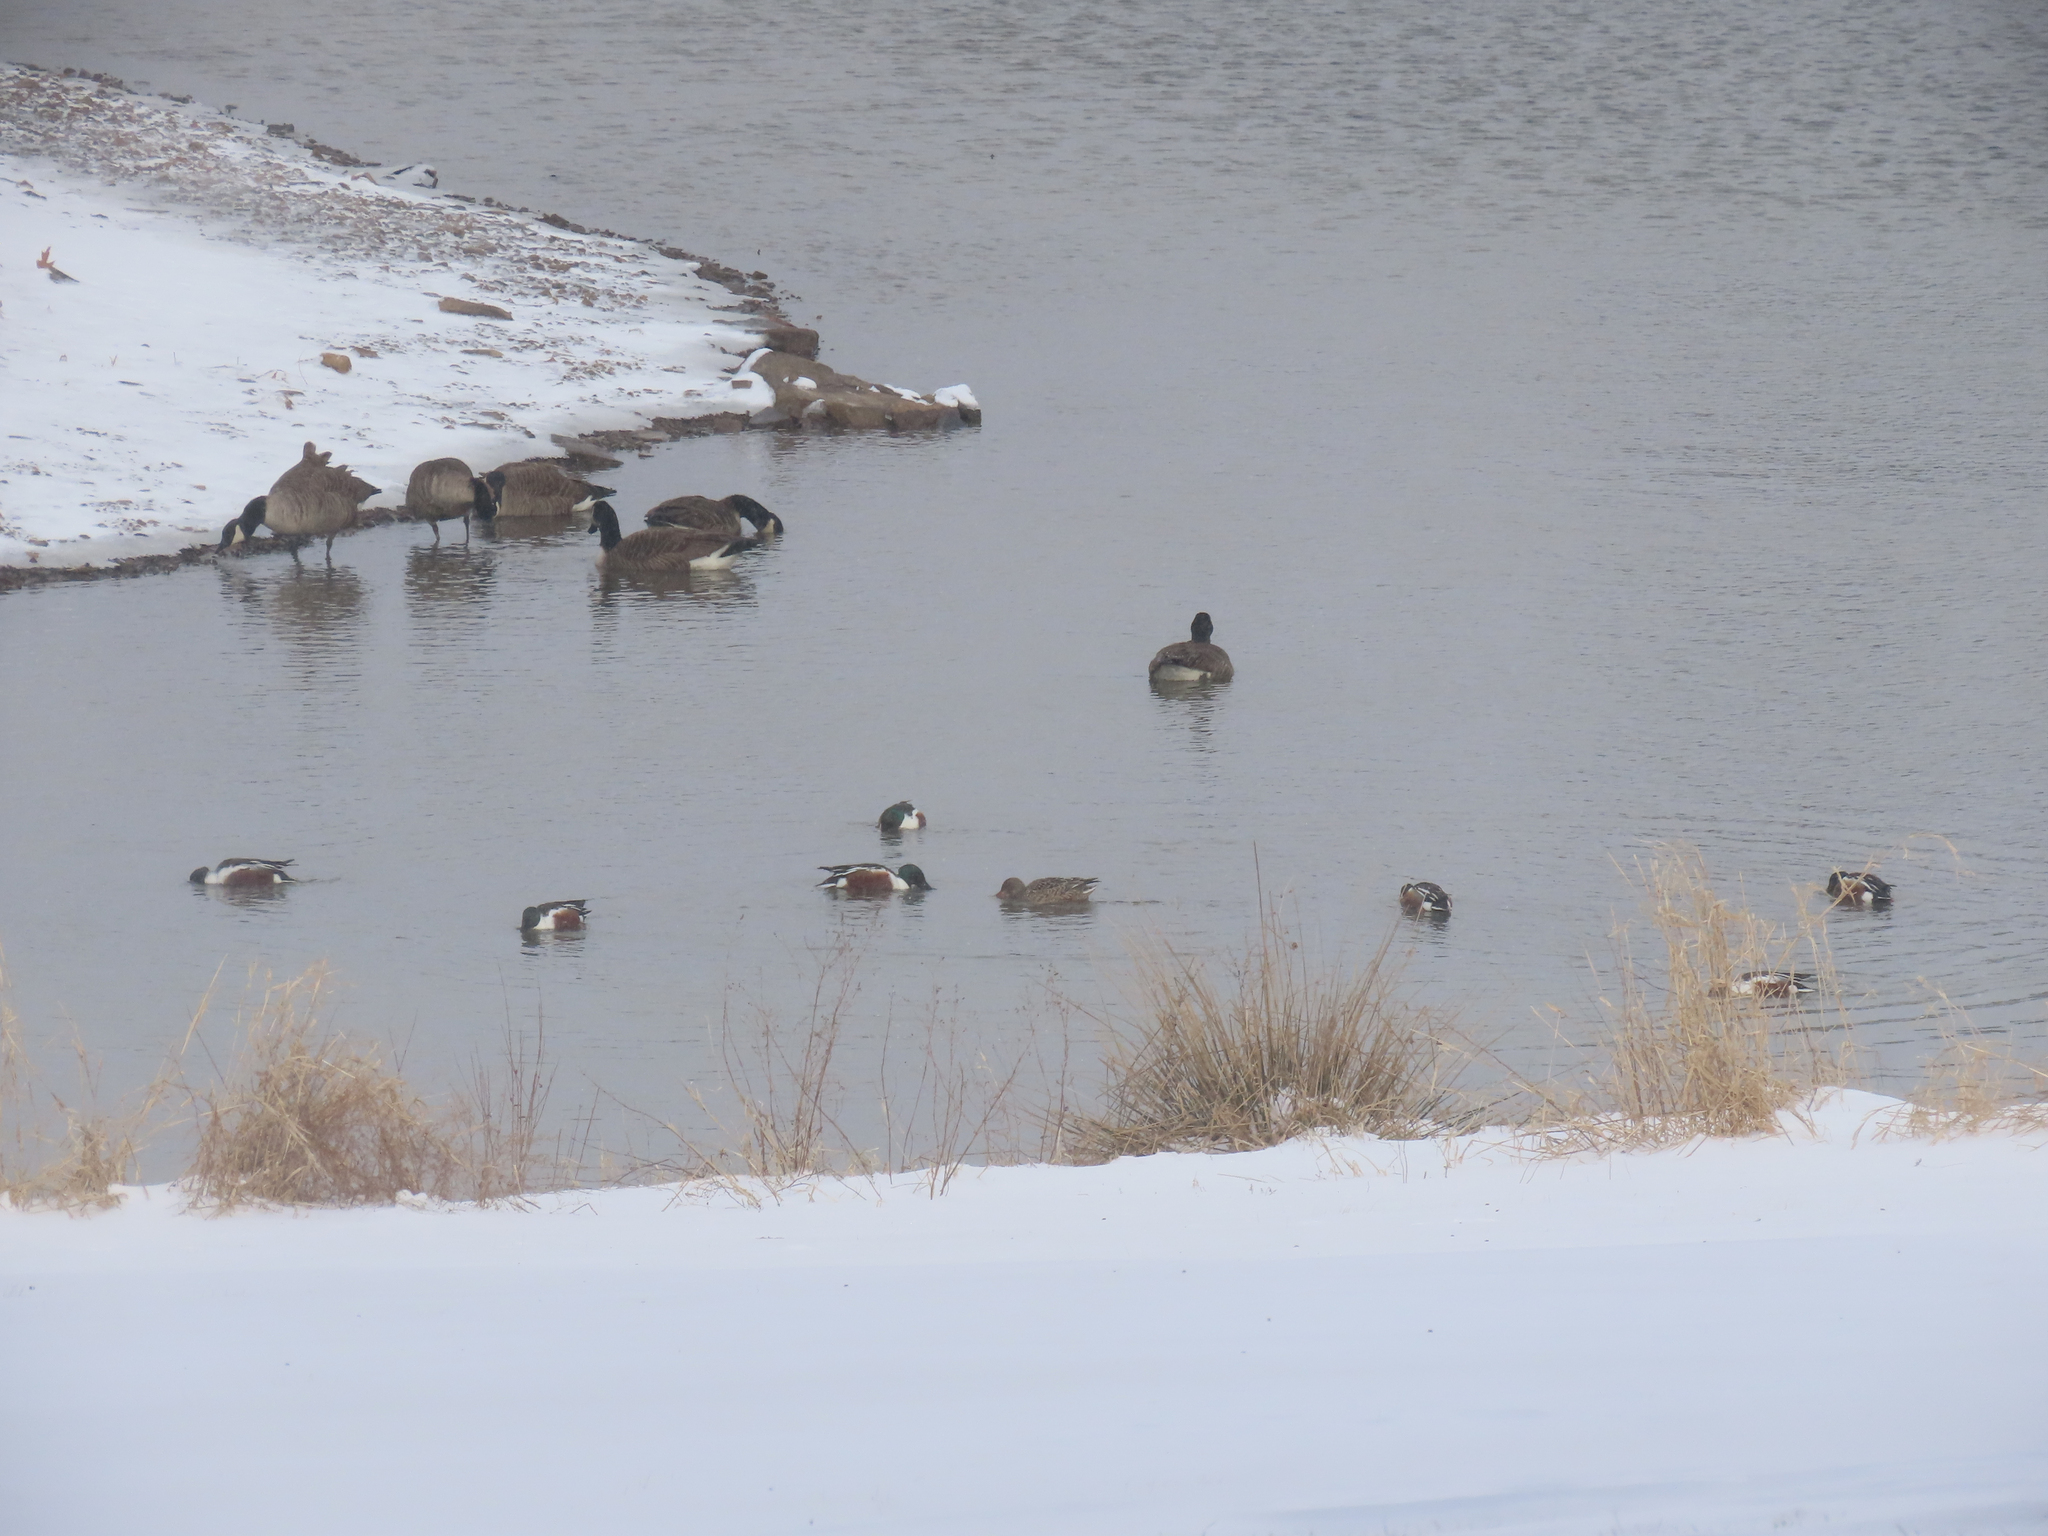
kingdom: Animalia
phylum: Chordata
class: Aves
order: Anseriformes
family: Anatidae
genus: Spatula
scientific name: Spatula clypeata
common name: Northern shoveler
